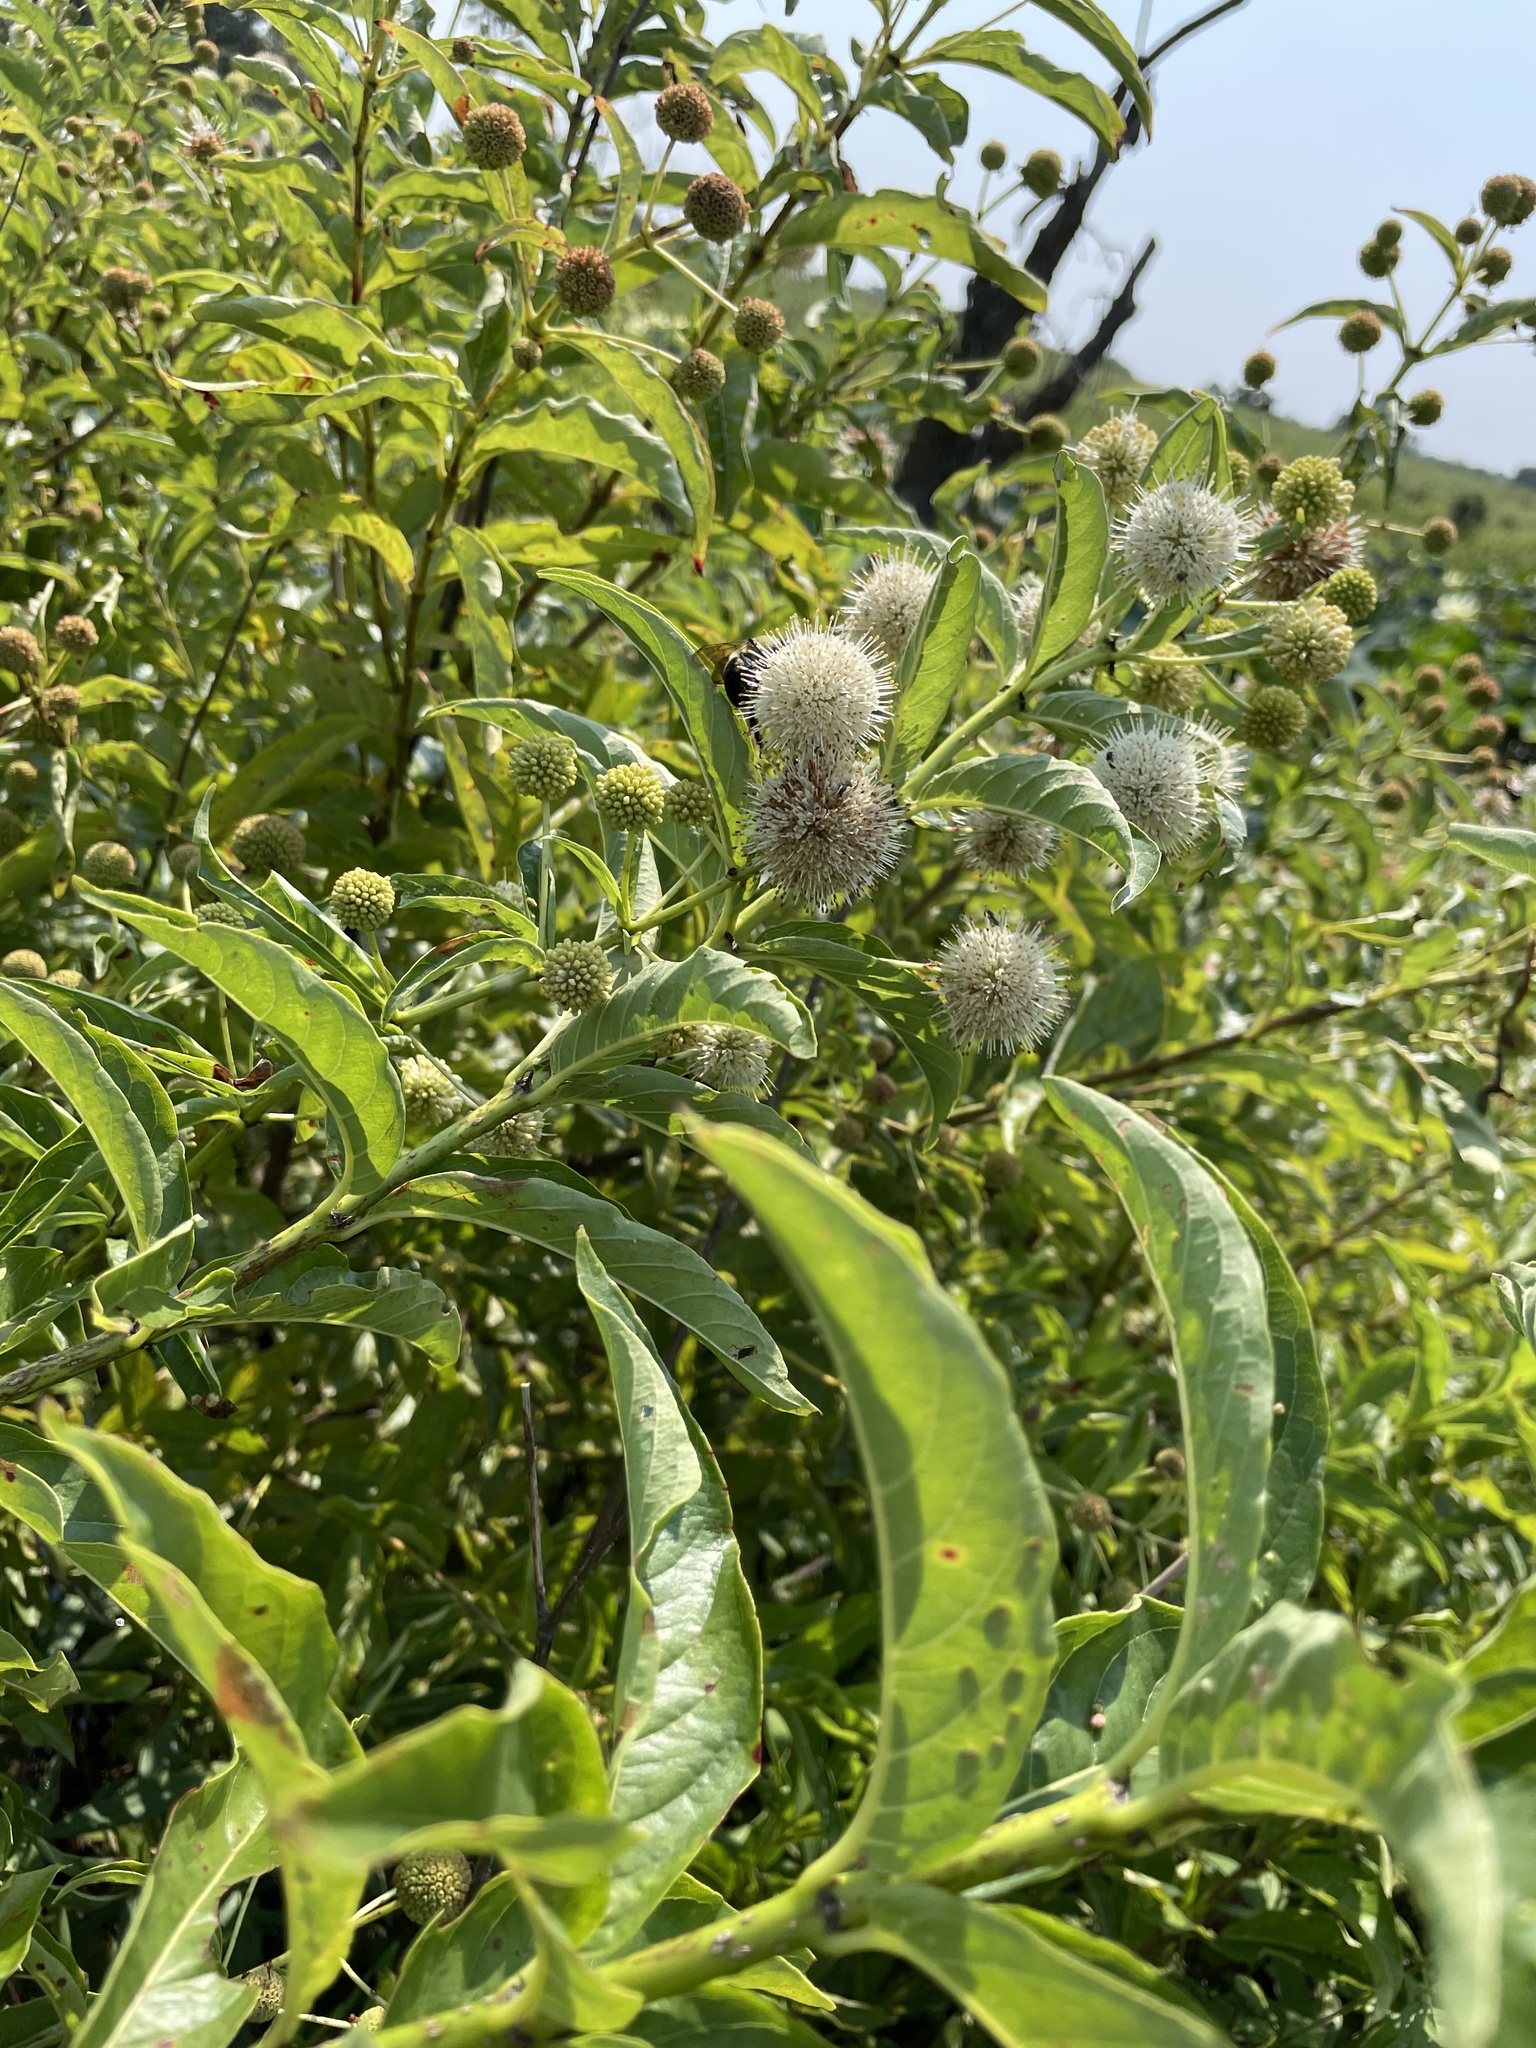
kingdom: Plantae
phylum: Tracheophyta
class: Magnoliopsida
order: Gentianales
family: Rubiaceae
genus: Cephalanthus
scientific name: Cephalanthus occidentalis
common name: Button-willow
